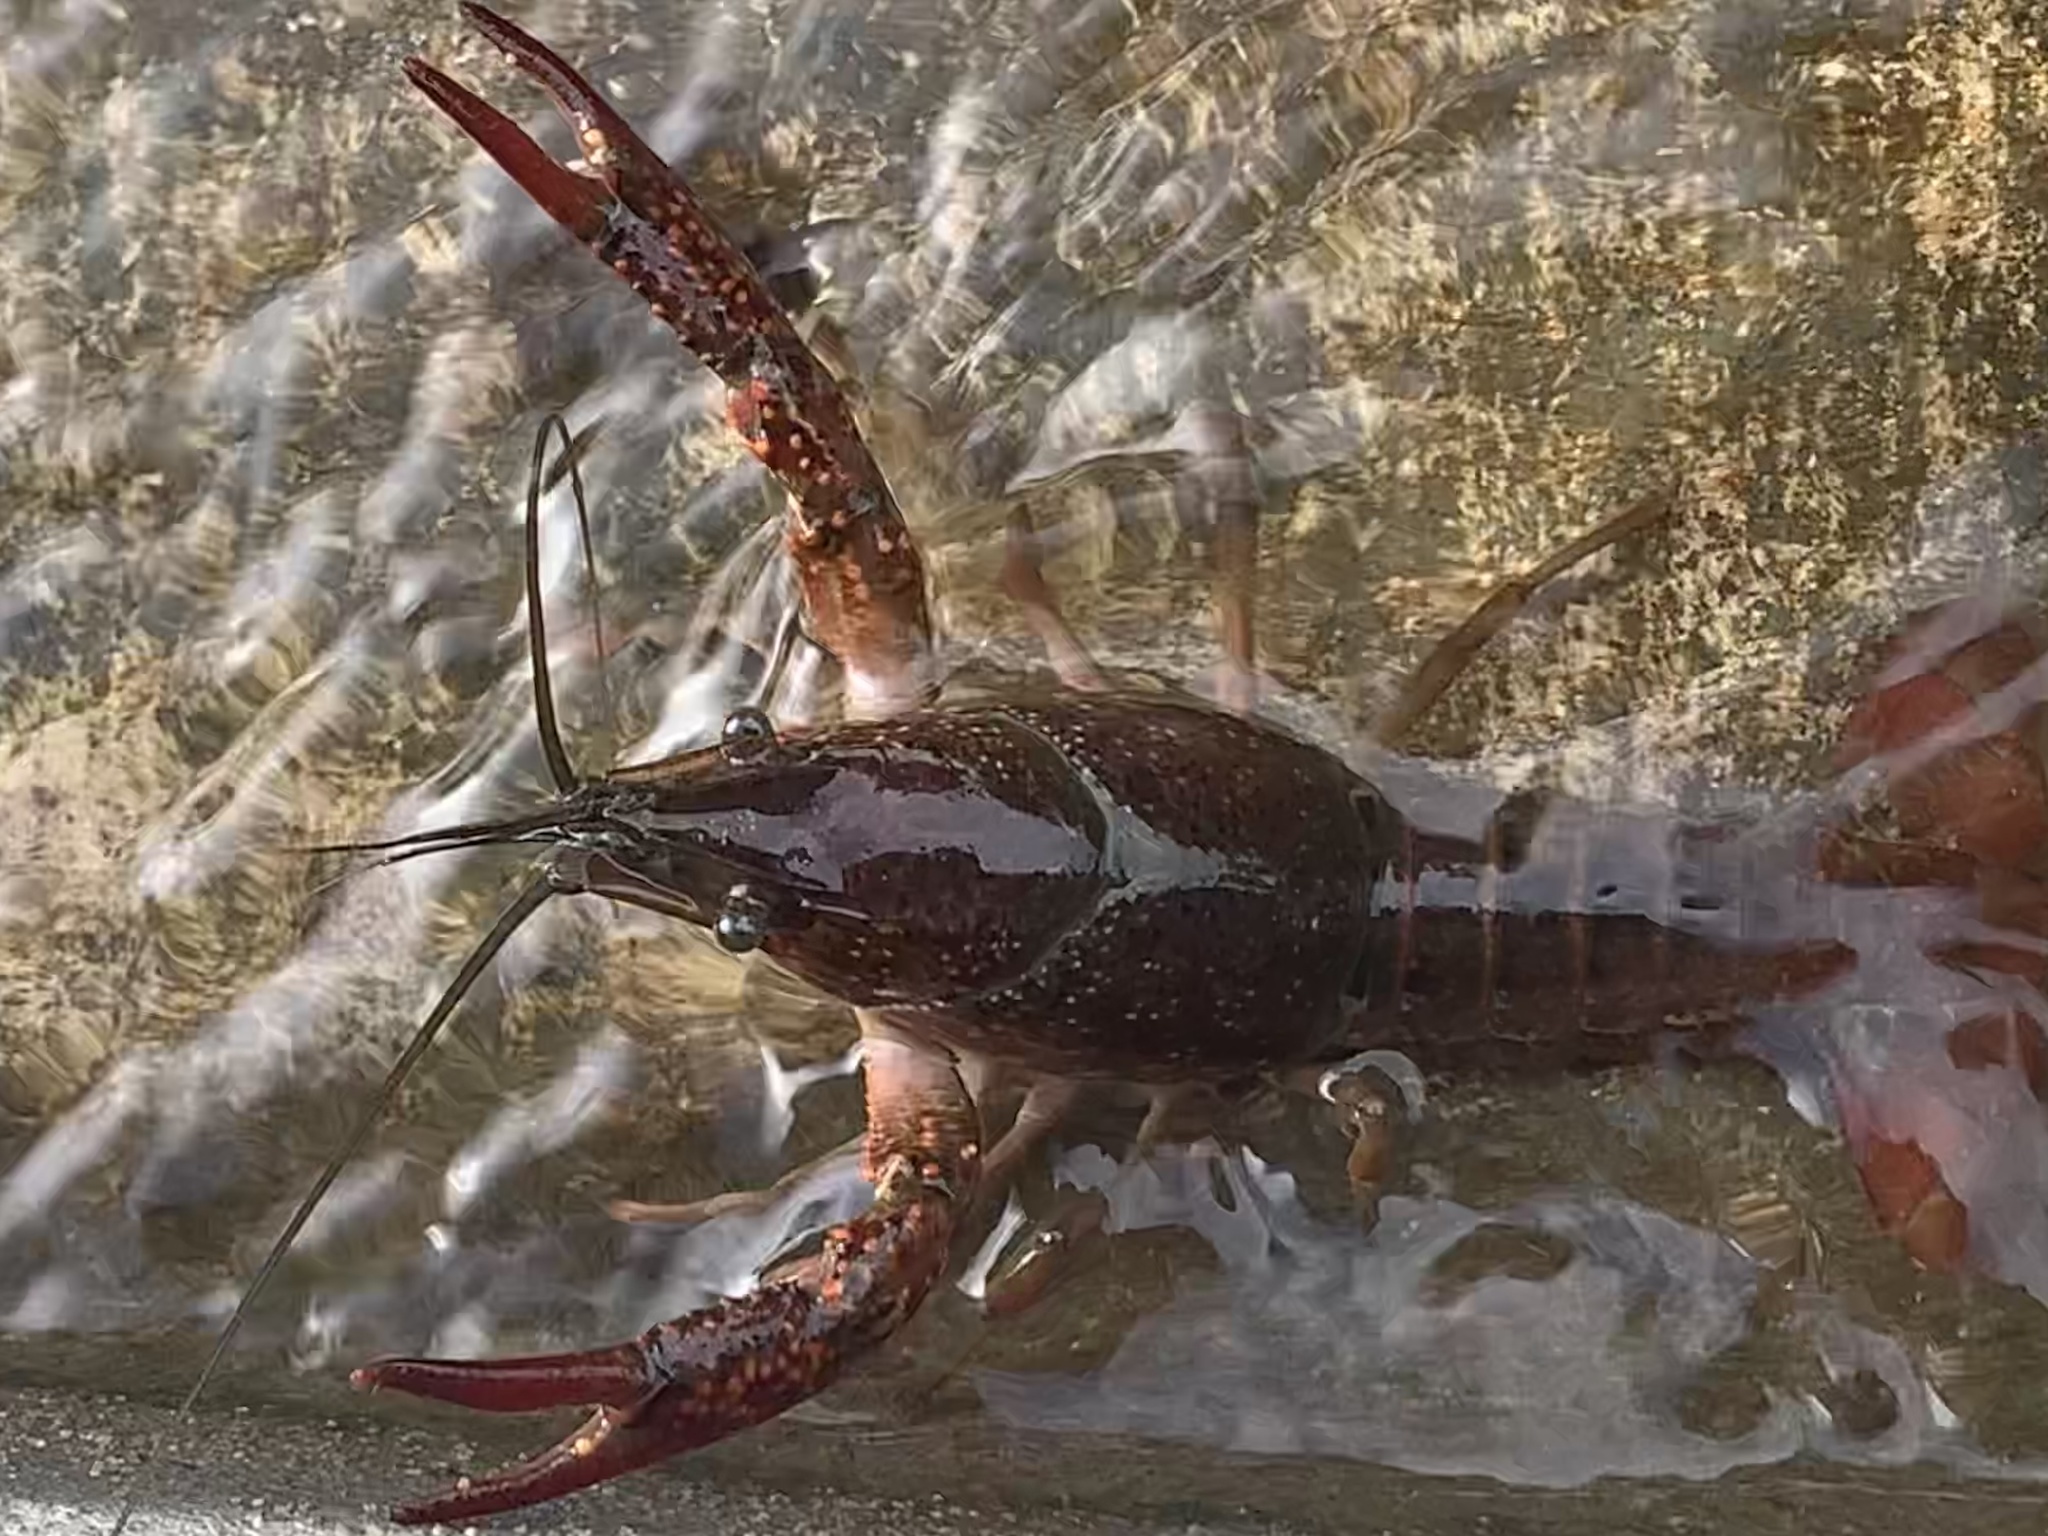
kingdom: Animalia
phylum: Arthropoda
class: Malacostraca
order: Decapoda
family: Cambaridae
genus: Procambarus
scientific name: Procambarus clarkii
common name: Red swamp crayfish
